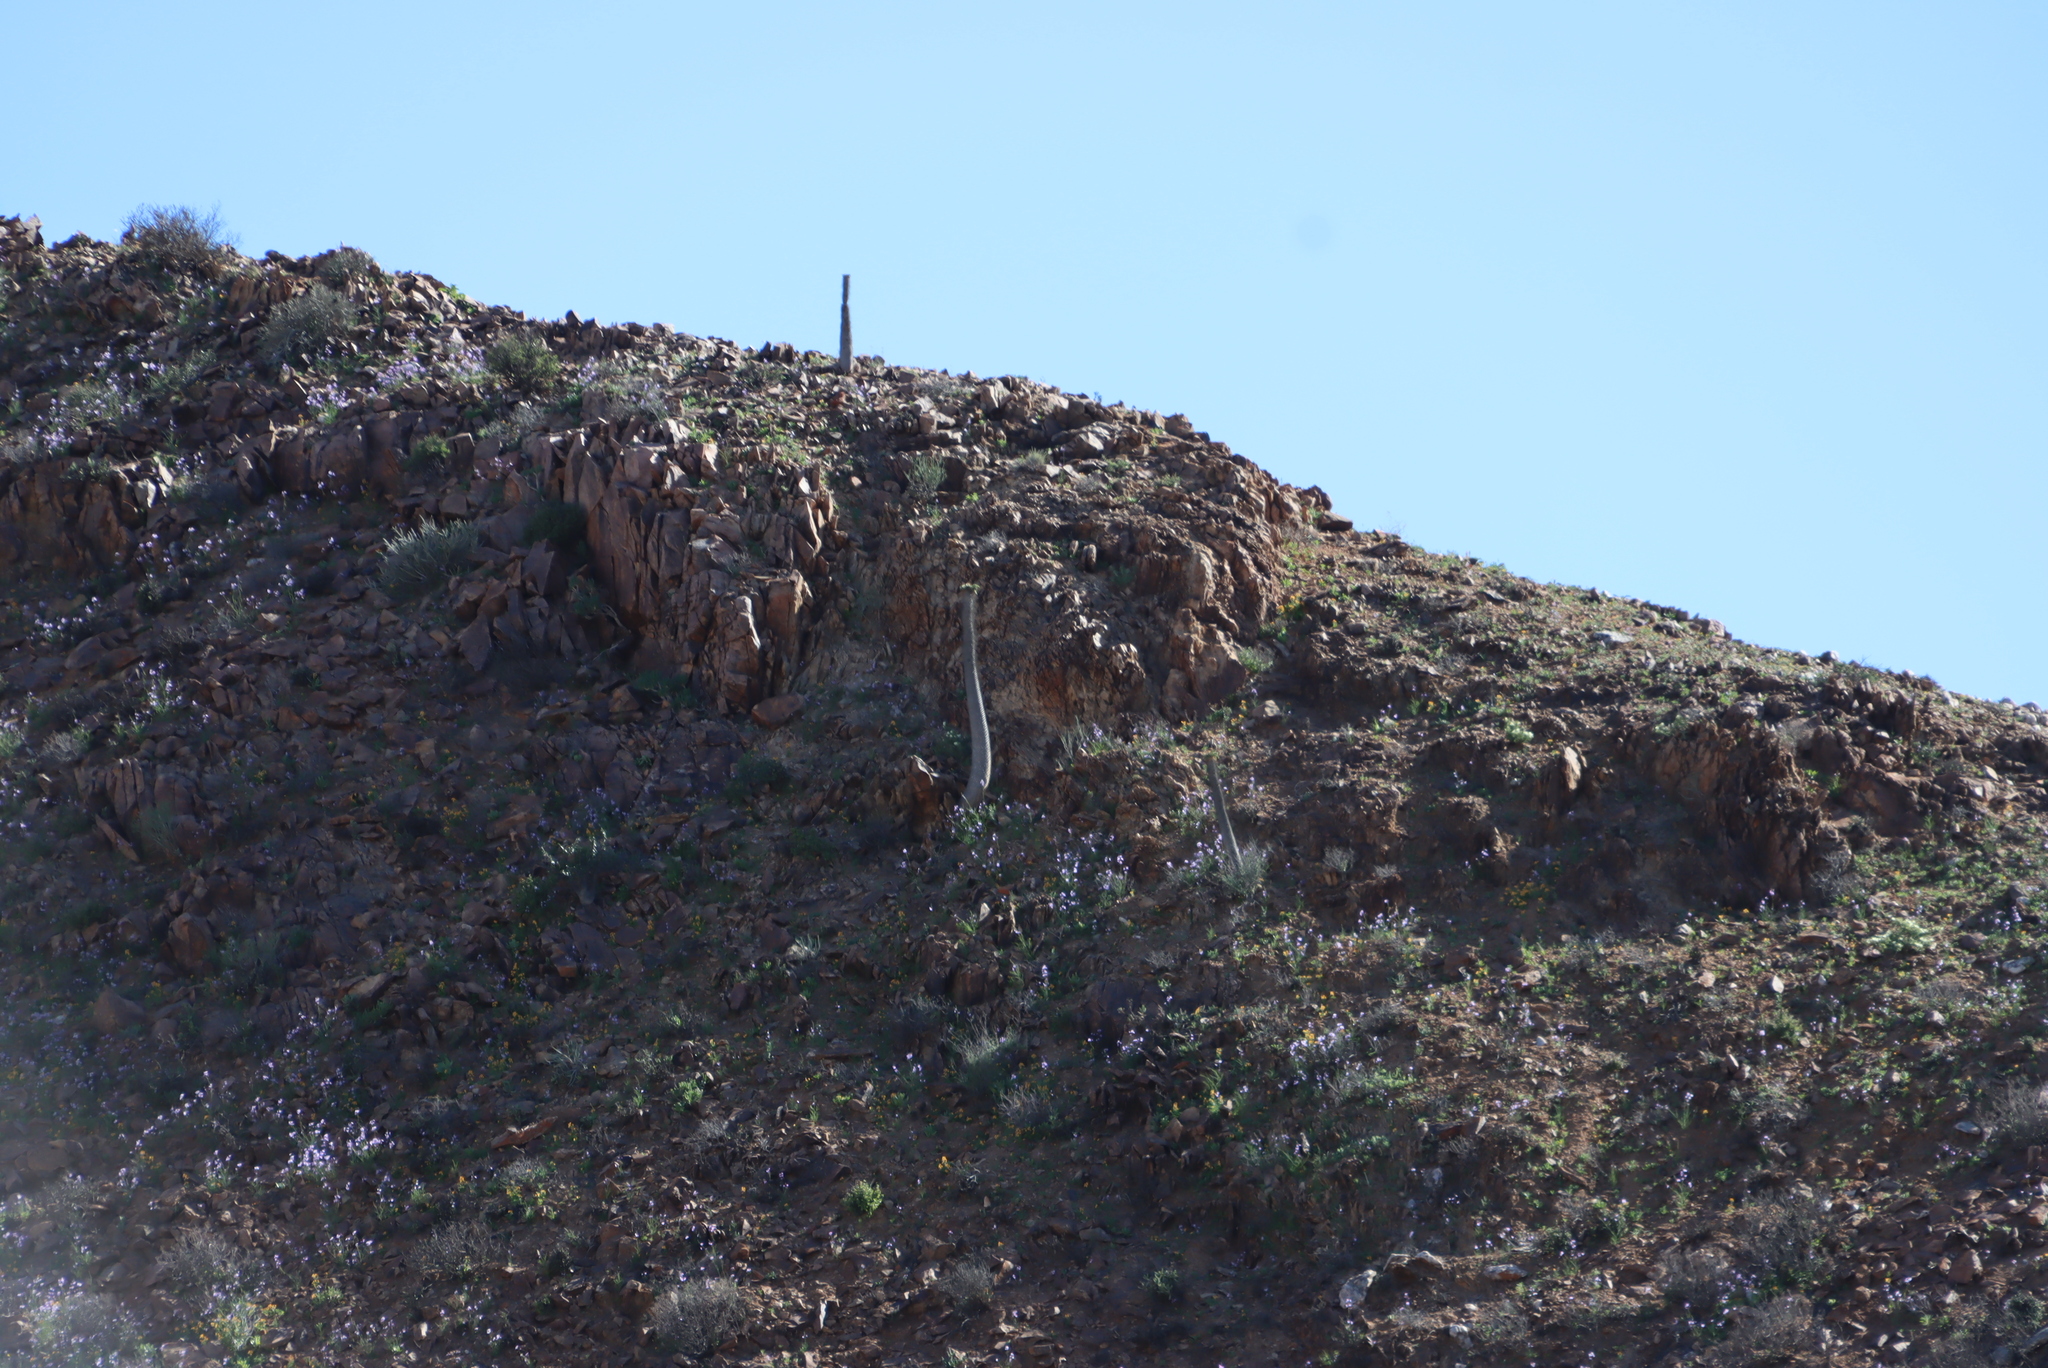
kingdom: Plantae
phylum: Tracheophyta
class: Magnoliopsida
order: Gentianales
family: Apocynaceae
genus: Pachypodium
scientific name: Pachypodium namaquanum
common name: Elephant's trunk
